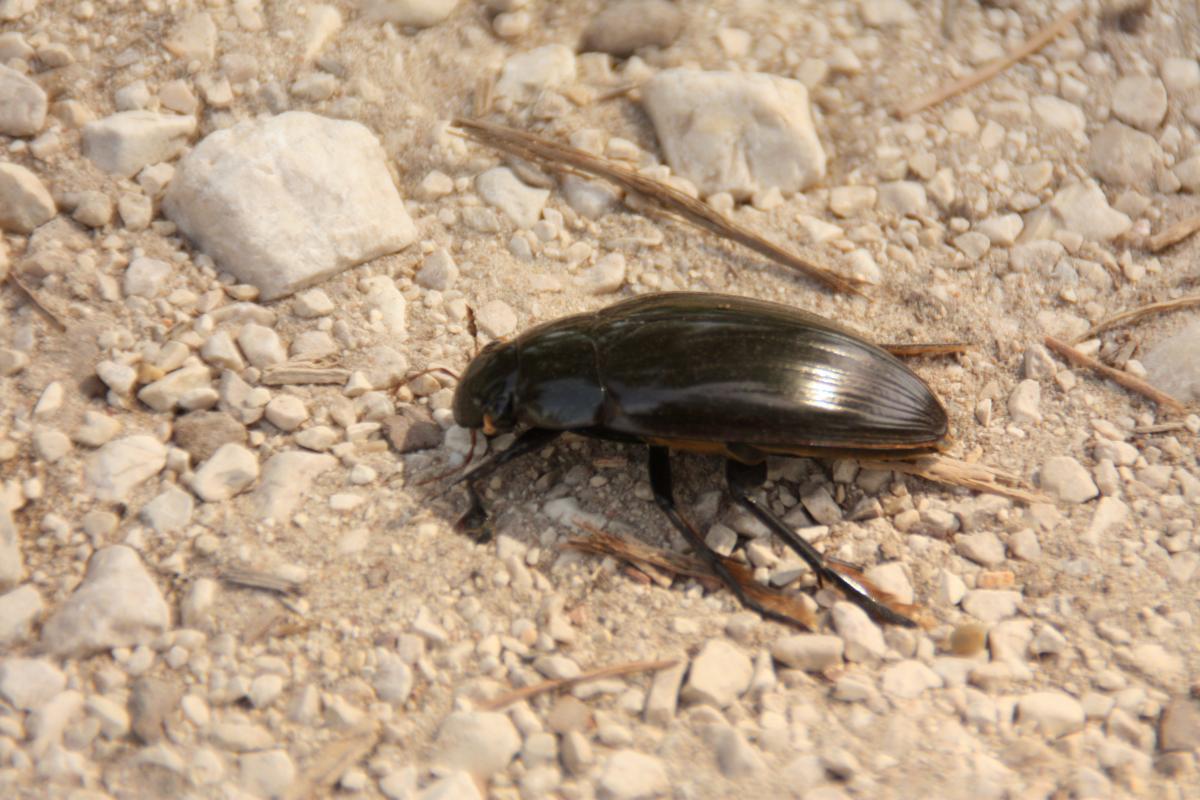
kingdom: Animalia
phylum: Arthropoda
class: Insecta
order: Coleoptera
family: Hydrophilidae
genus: Hydrophilus
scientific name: Hydrophilus piceus
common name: Great silver water beetle
